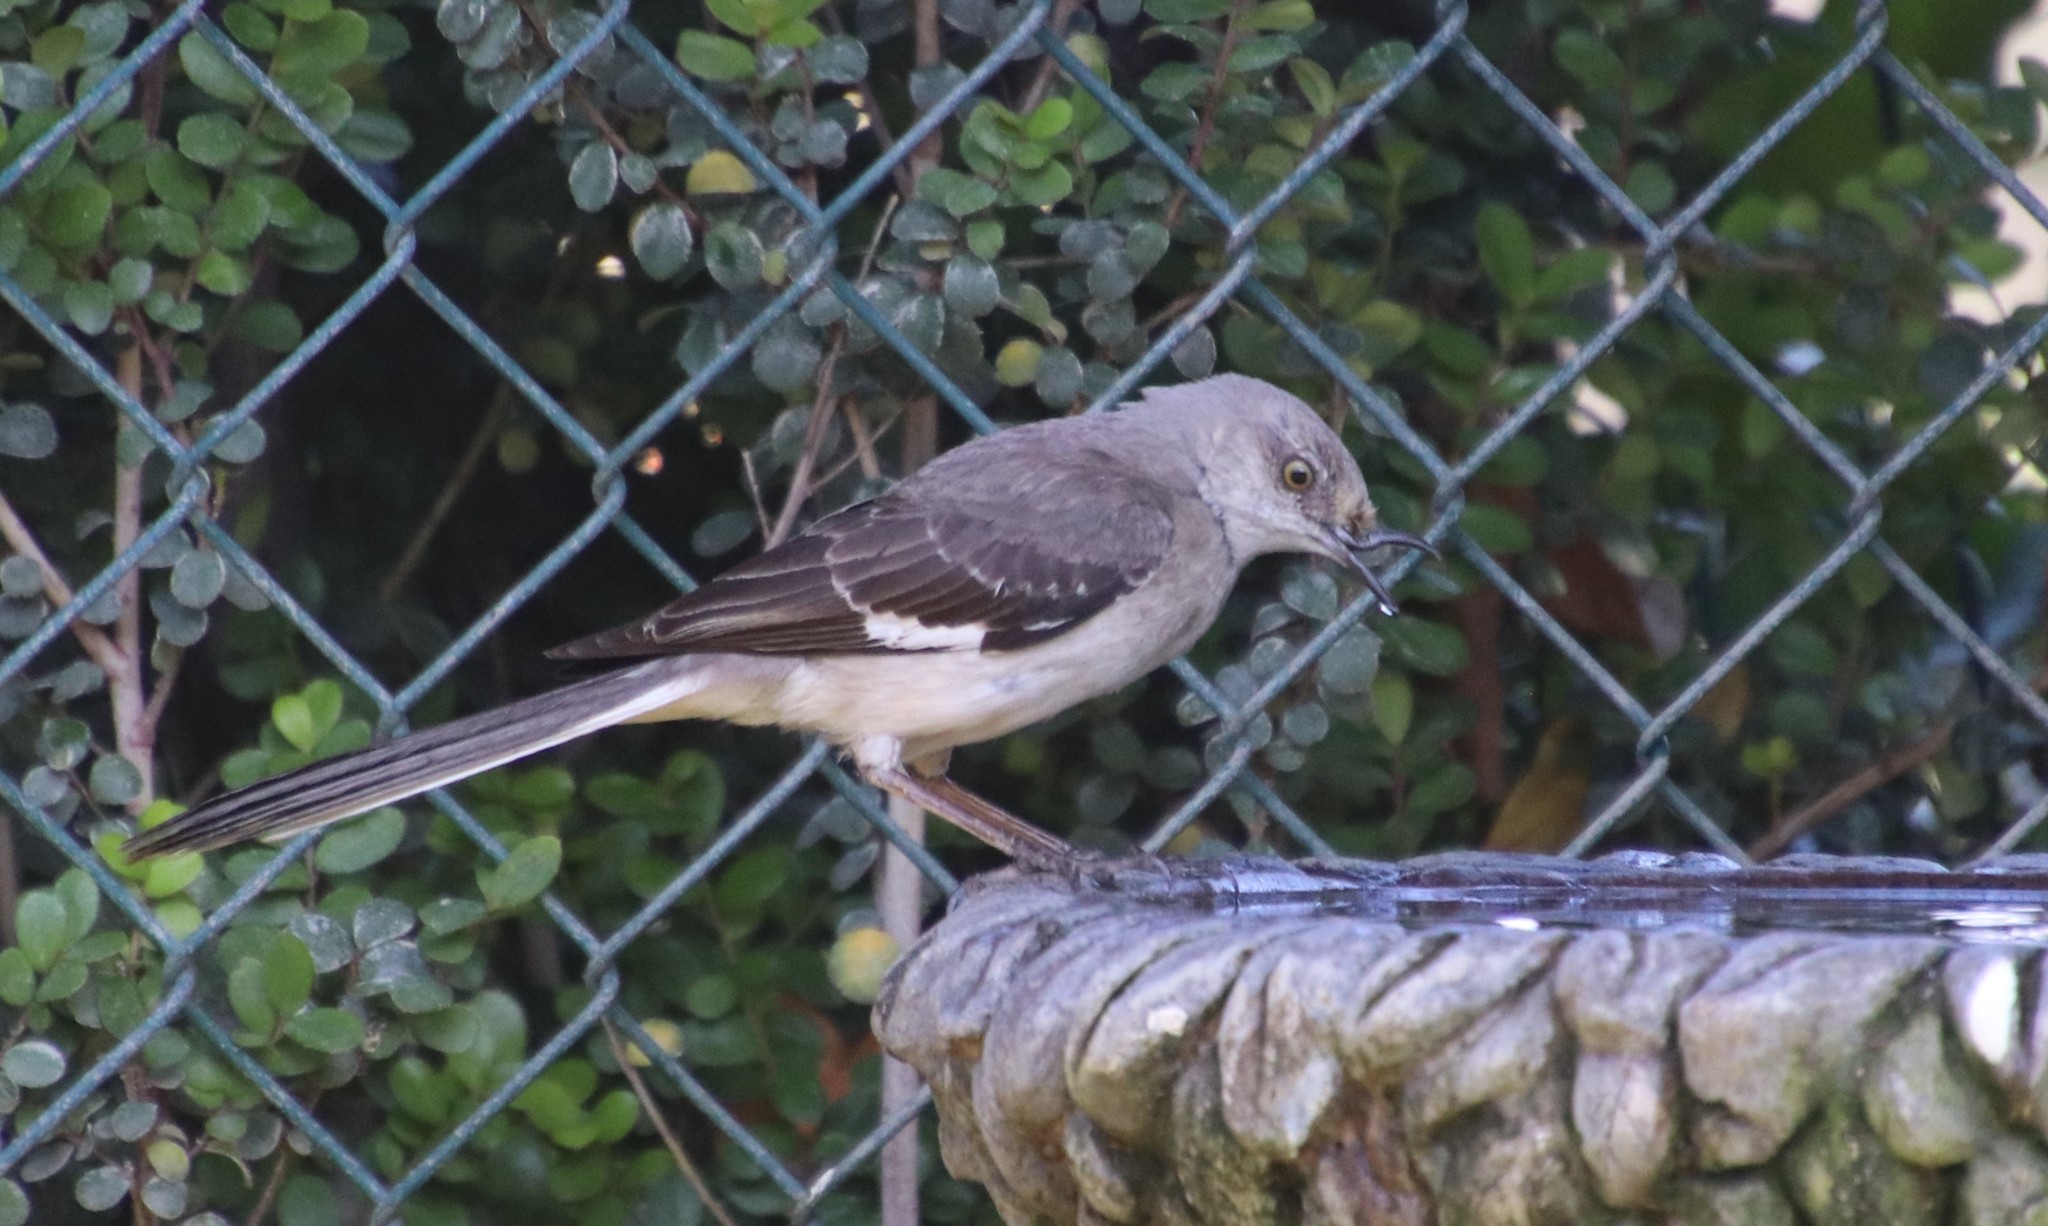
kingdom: Animalia
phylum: Chordata
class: Aves
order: Passeriformes
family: Mimidae
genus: Mimus
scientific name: Mimus polyglottos
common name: Northern mockingbird
